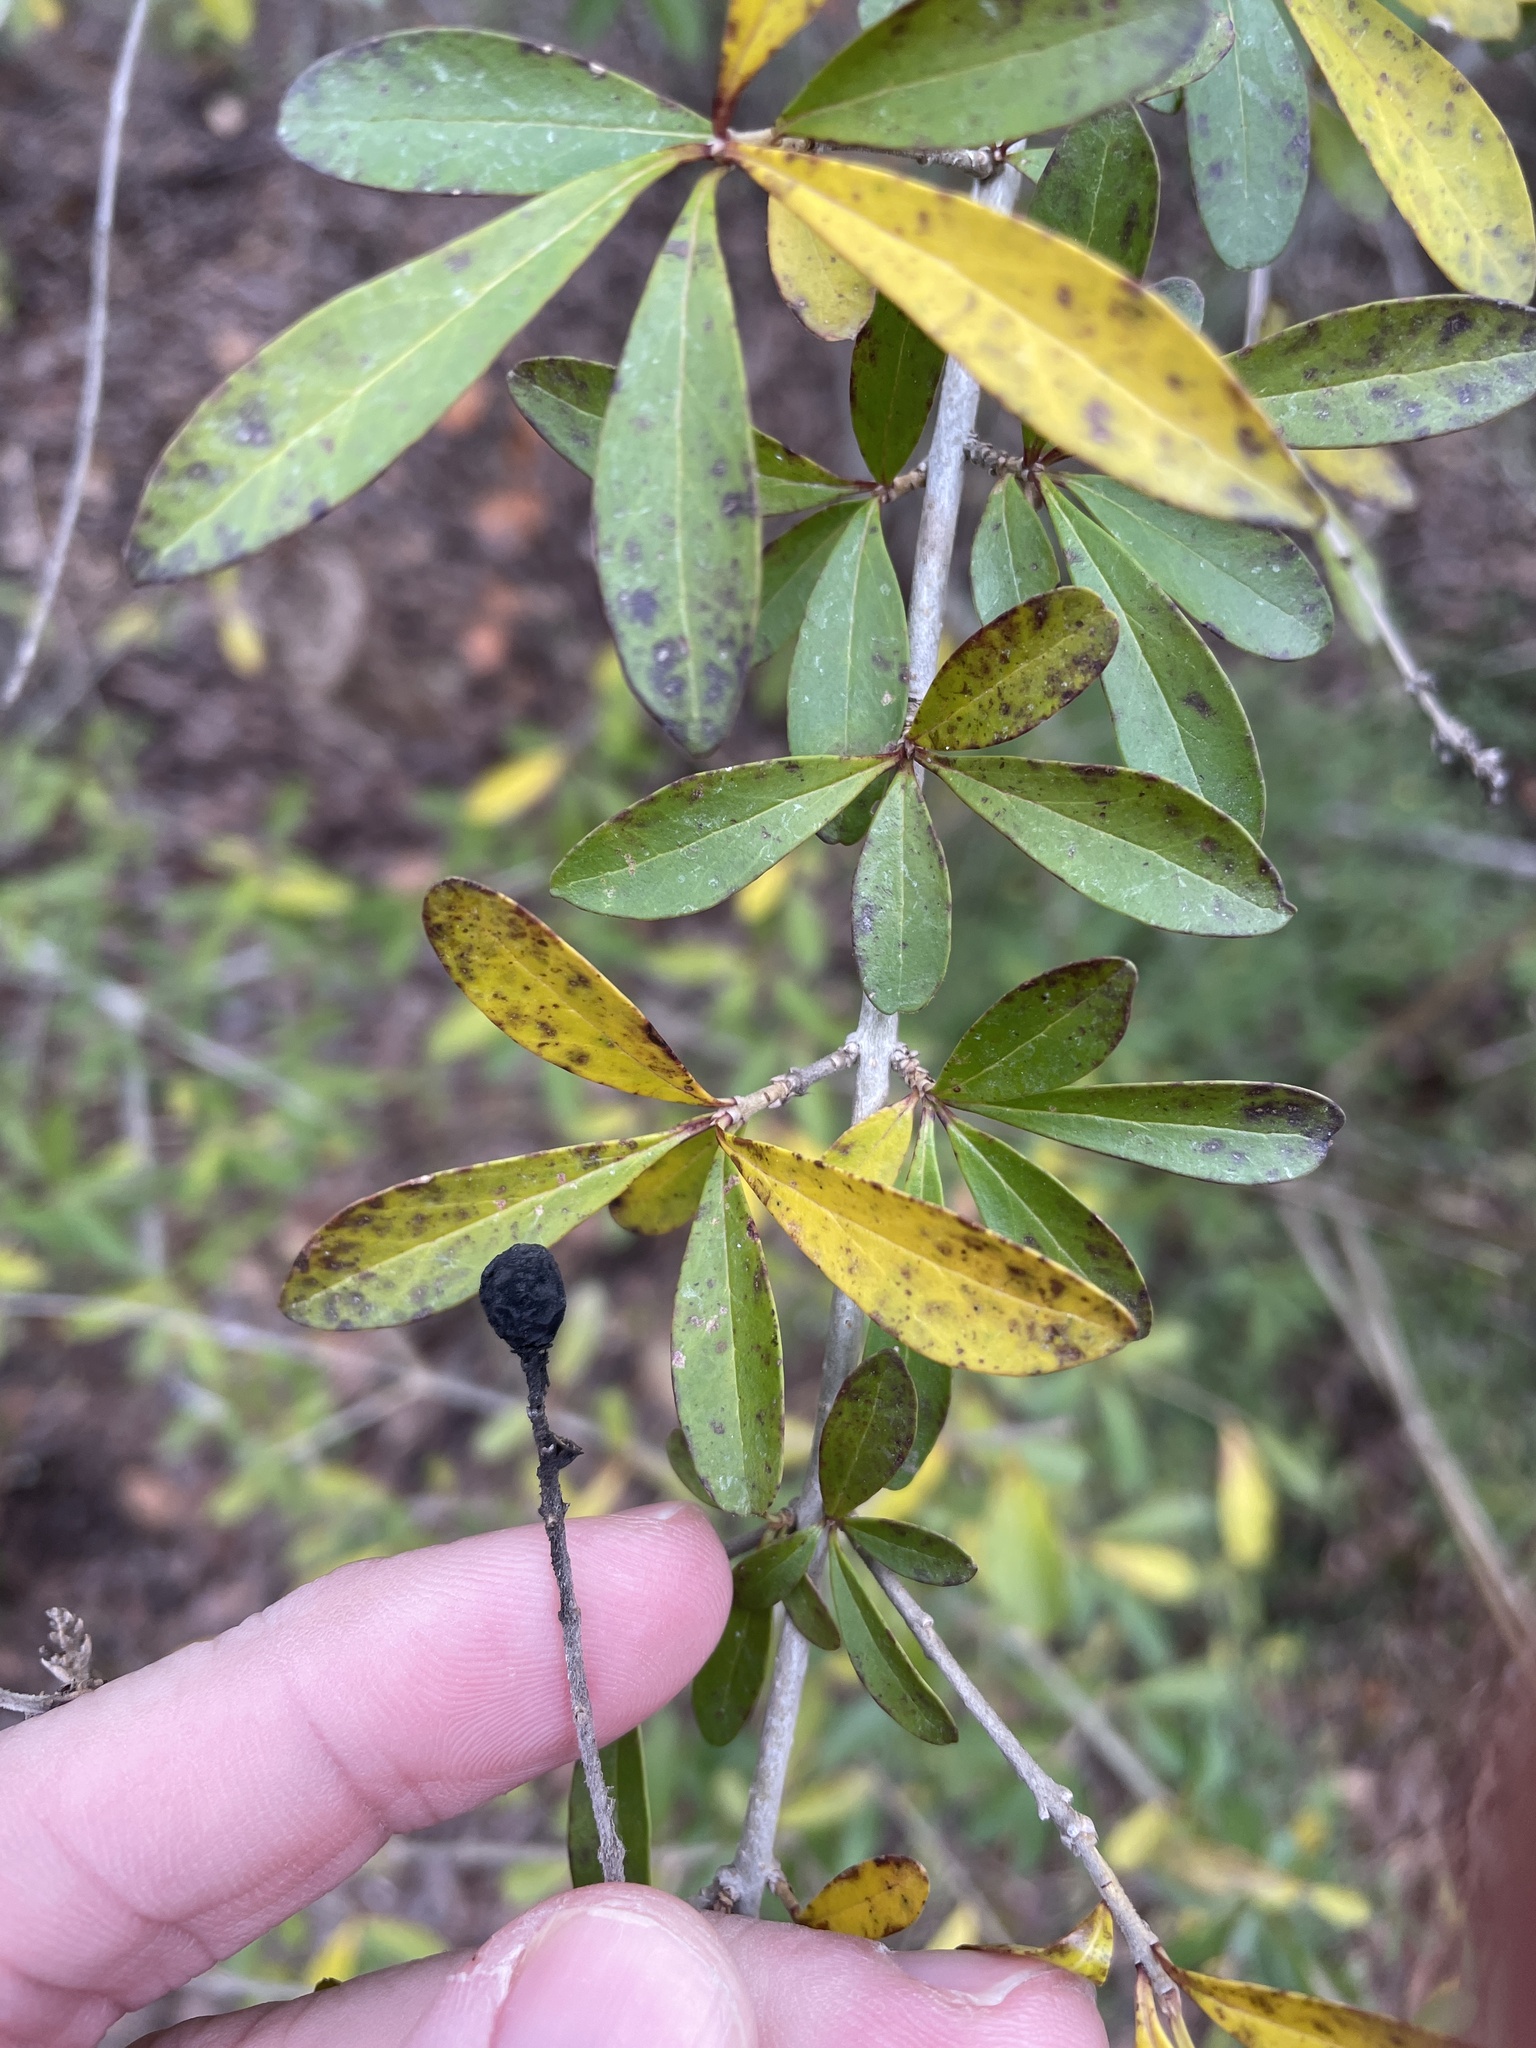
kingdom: Plantae
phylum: Tracheophyta
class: Magnoliopsida
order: Lamiales
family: Oleaceae
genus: Ligustrum
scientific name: Ligustrum quihoui
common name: Waxyleaf privet
